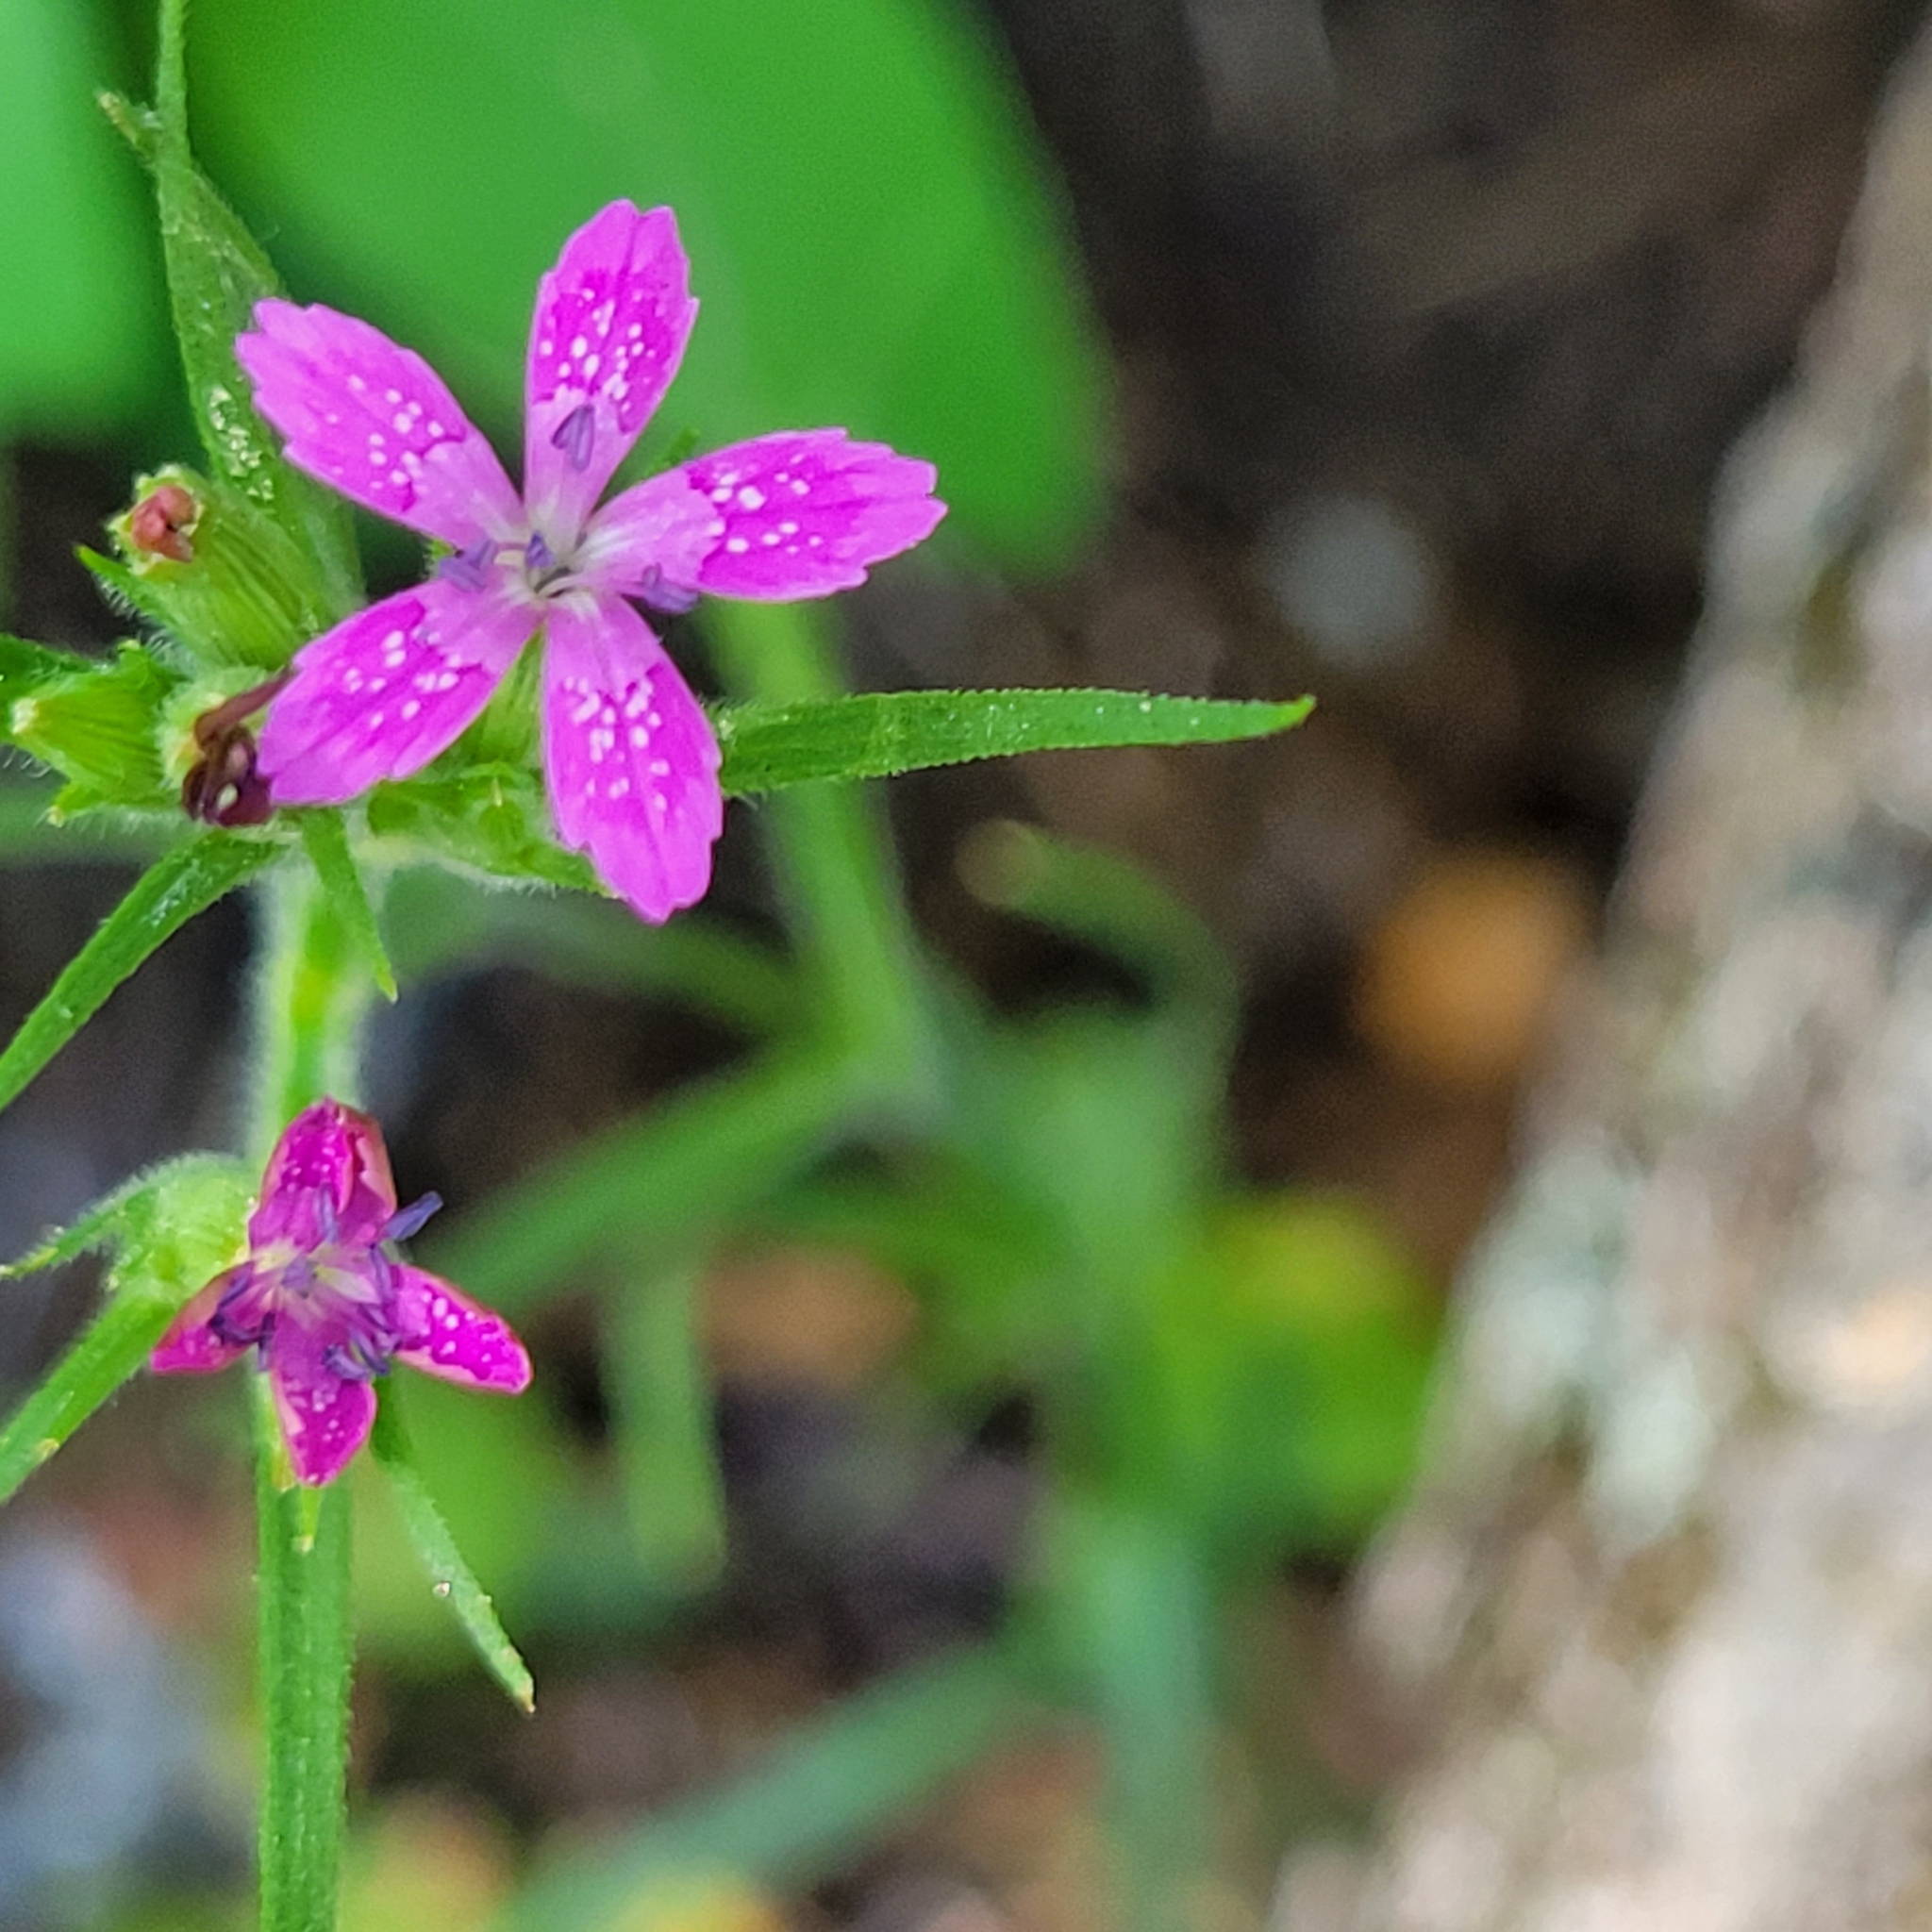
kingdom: Plantae
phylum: Tracheophyta
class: Magnoliopsida
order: Caryophyllales
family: Caryophyllaceae
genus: Dianthus
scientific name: Dianthus armeria
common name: Deptford pink
